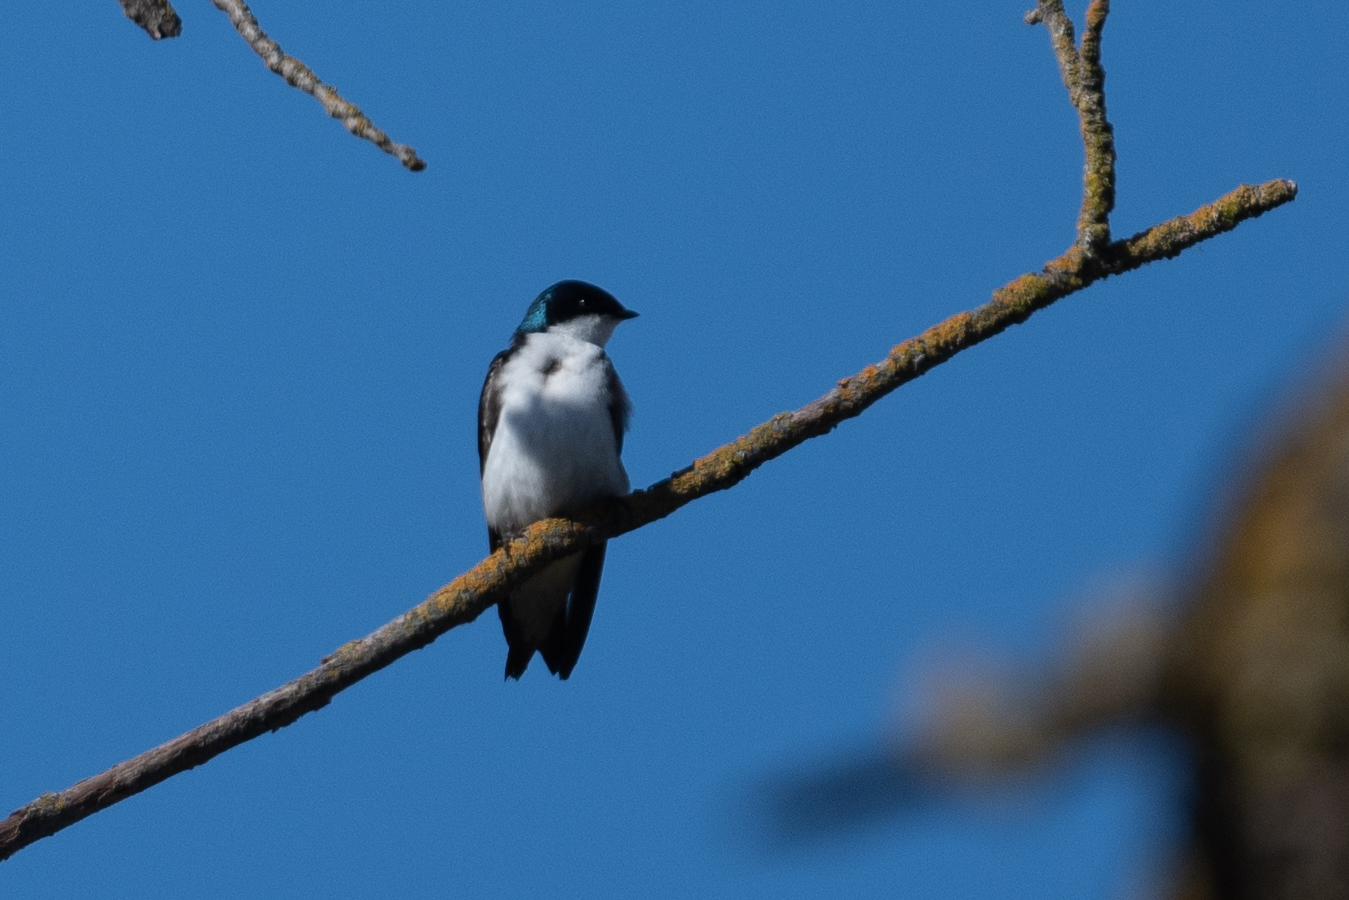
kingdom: Animalia
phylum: Chordata
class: Aves
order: Passeriformes
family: Hirundinidae
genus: Tachycineta
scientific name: Tachycineta bicolor
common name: Tree swallow
